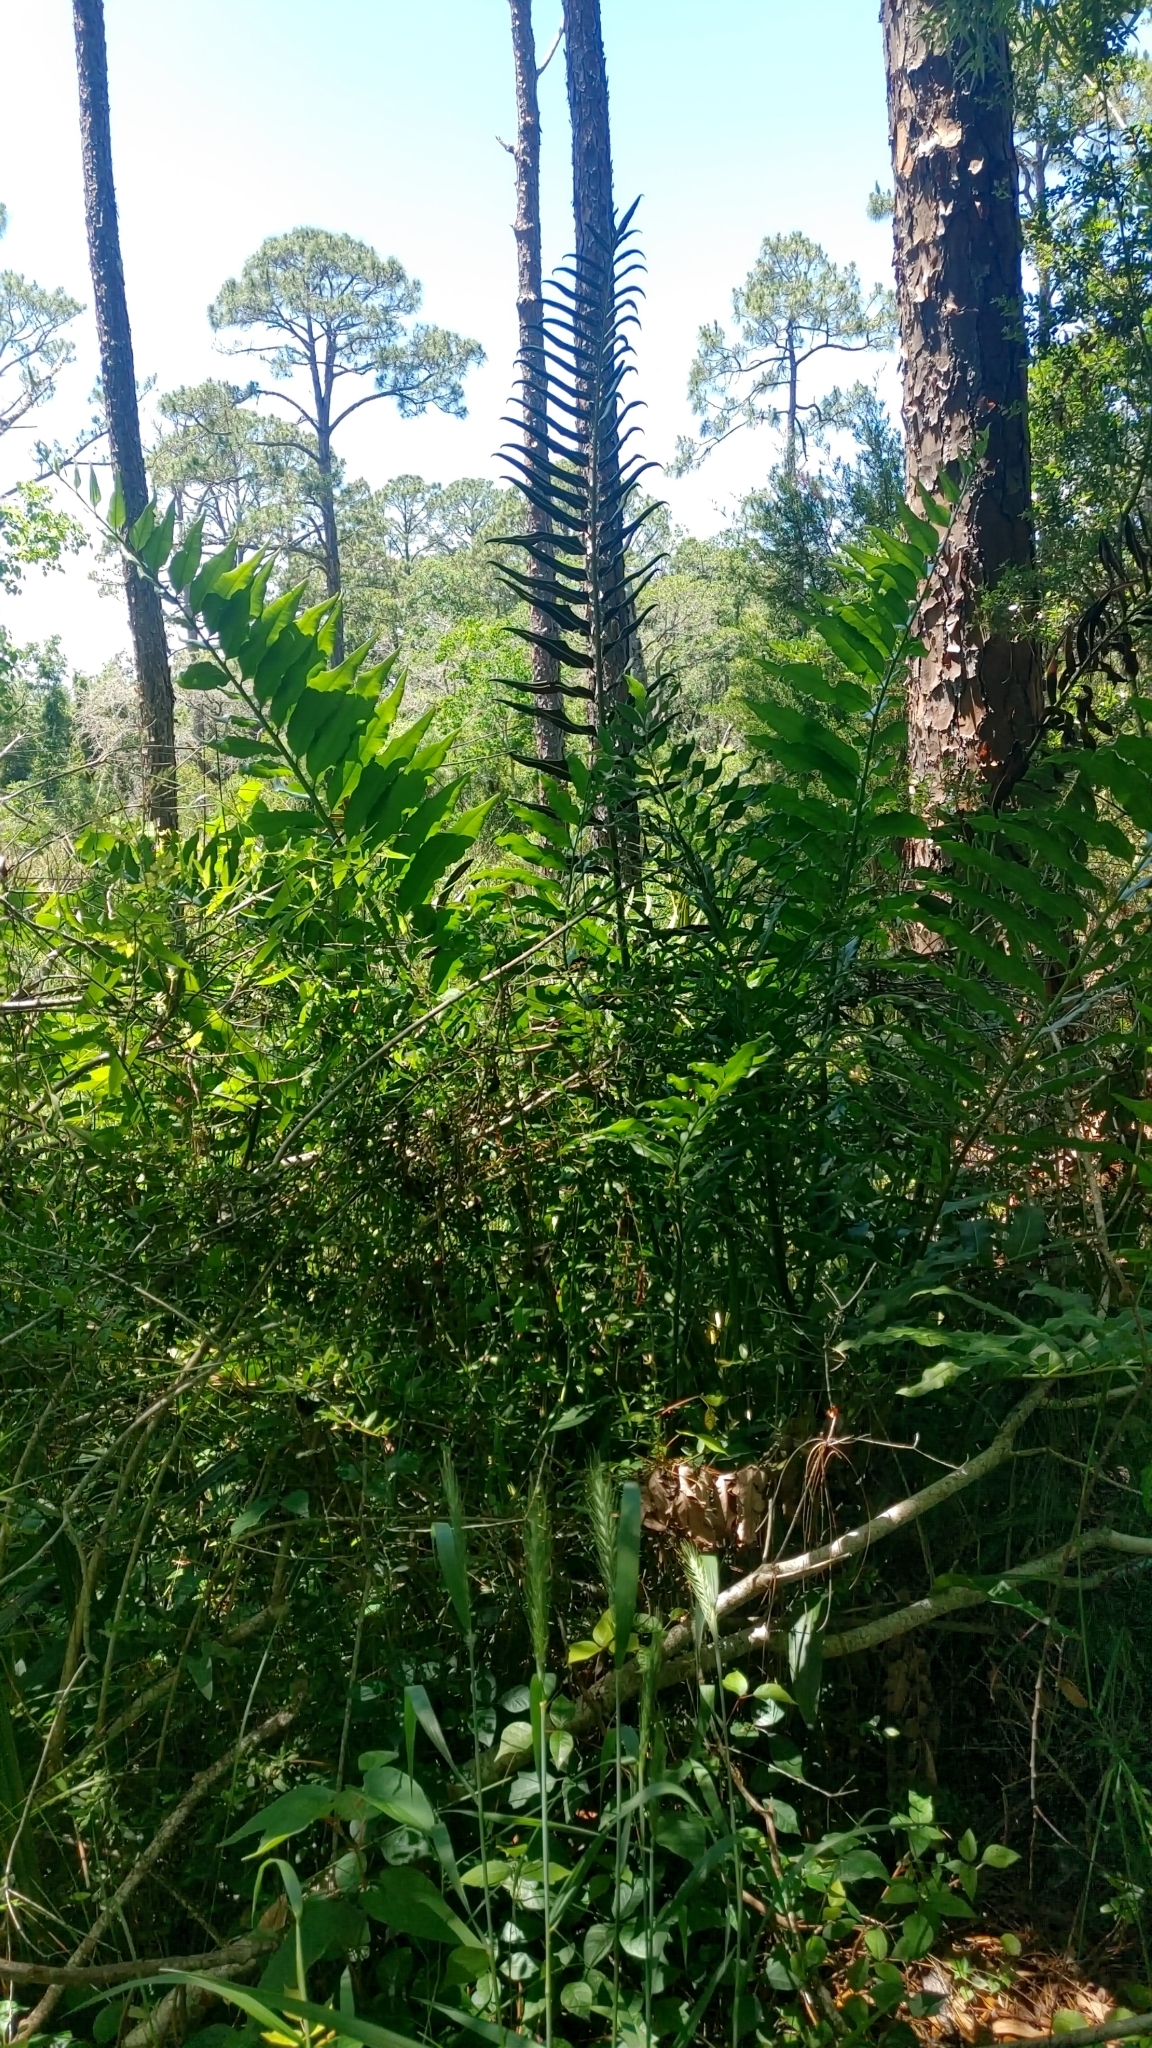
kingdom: Plantae
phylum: Tracheophyta
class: Polypodiopsida
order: Polypodiales
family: Pteridaceae
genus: Acrostichum
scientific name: Acrostichum danaeifolium
